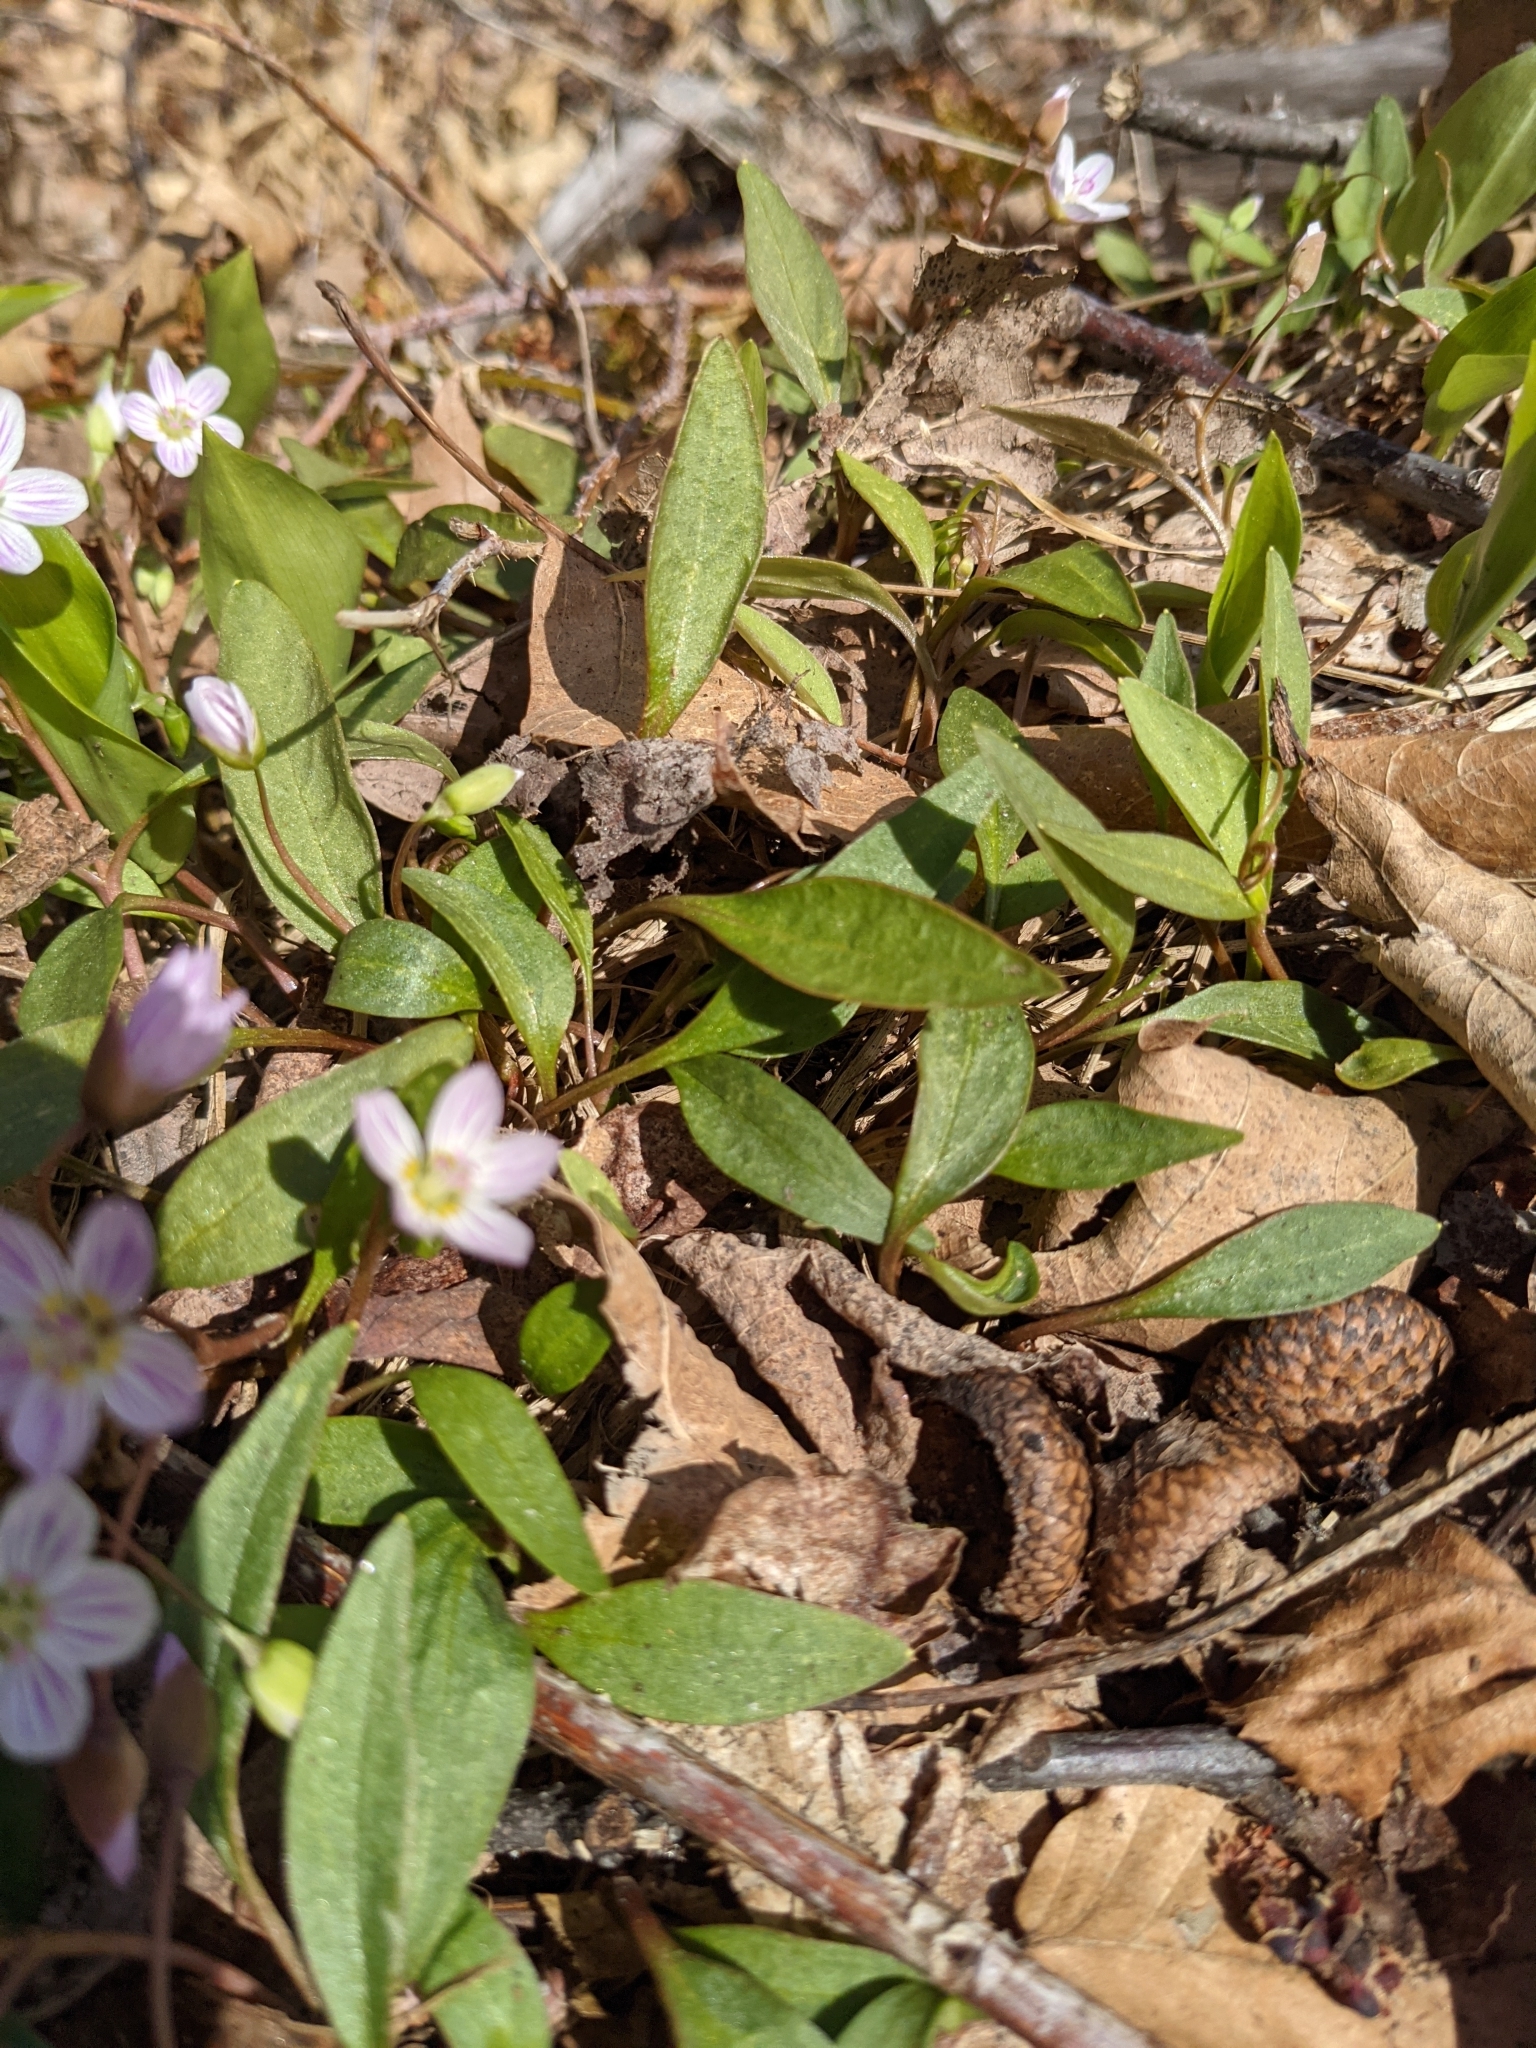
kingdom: Plantae
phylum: Tracheophyta
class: Magnoliopsida
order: Caryophyllales
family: Montiaceae
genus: Claytonia
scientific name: Claytonia caroliniana
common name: Carolina spring beauty
